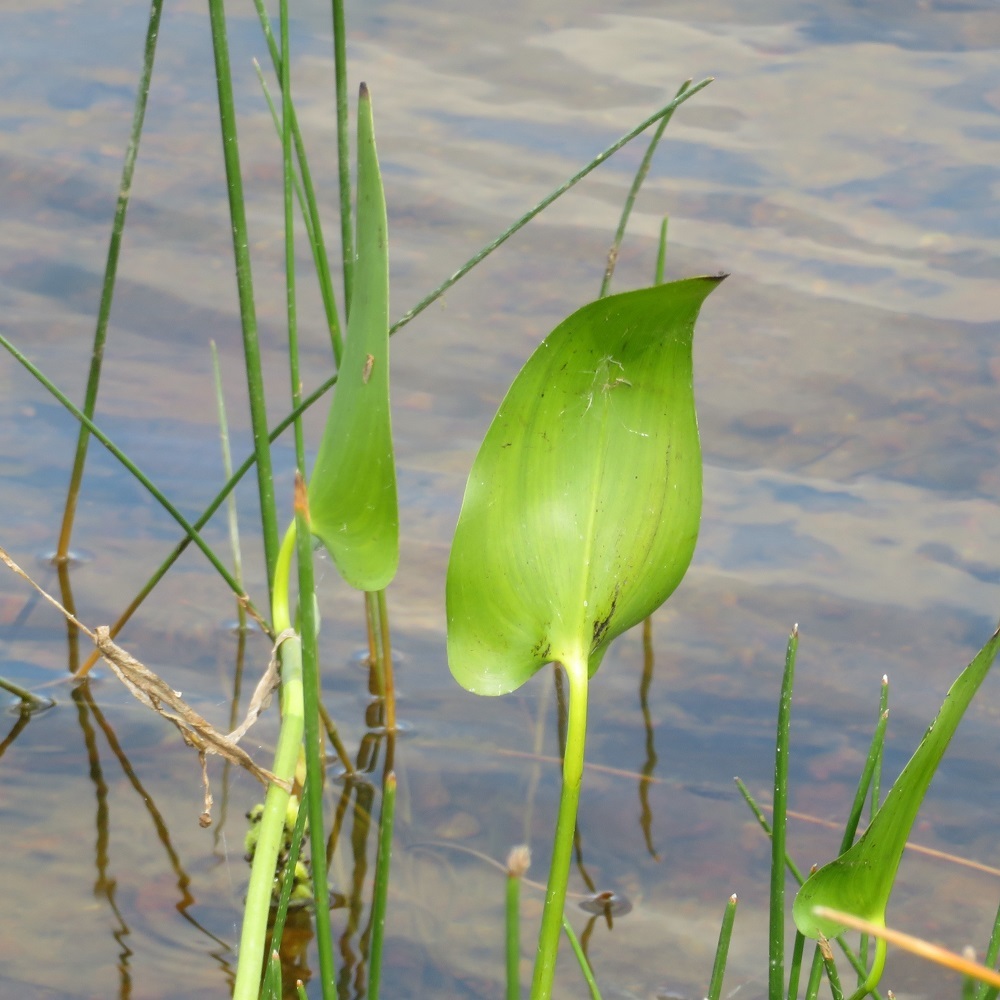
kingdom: Plantae
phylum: Tracheophyta
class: Liliopsida
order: Commelinales
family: Pontederiaceae
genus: Pontederia
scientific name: Pontederia cordata
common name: Pickerelweed
